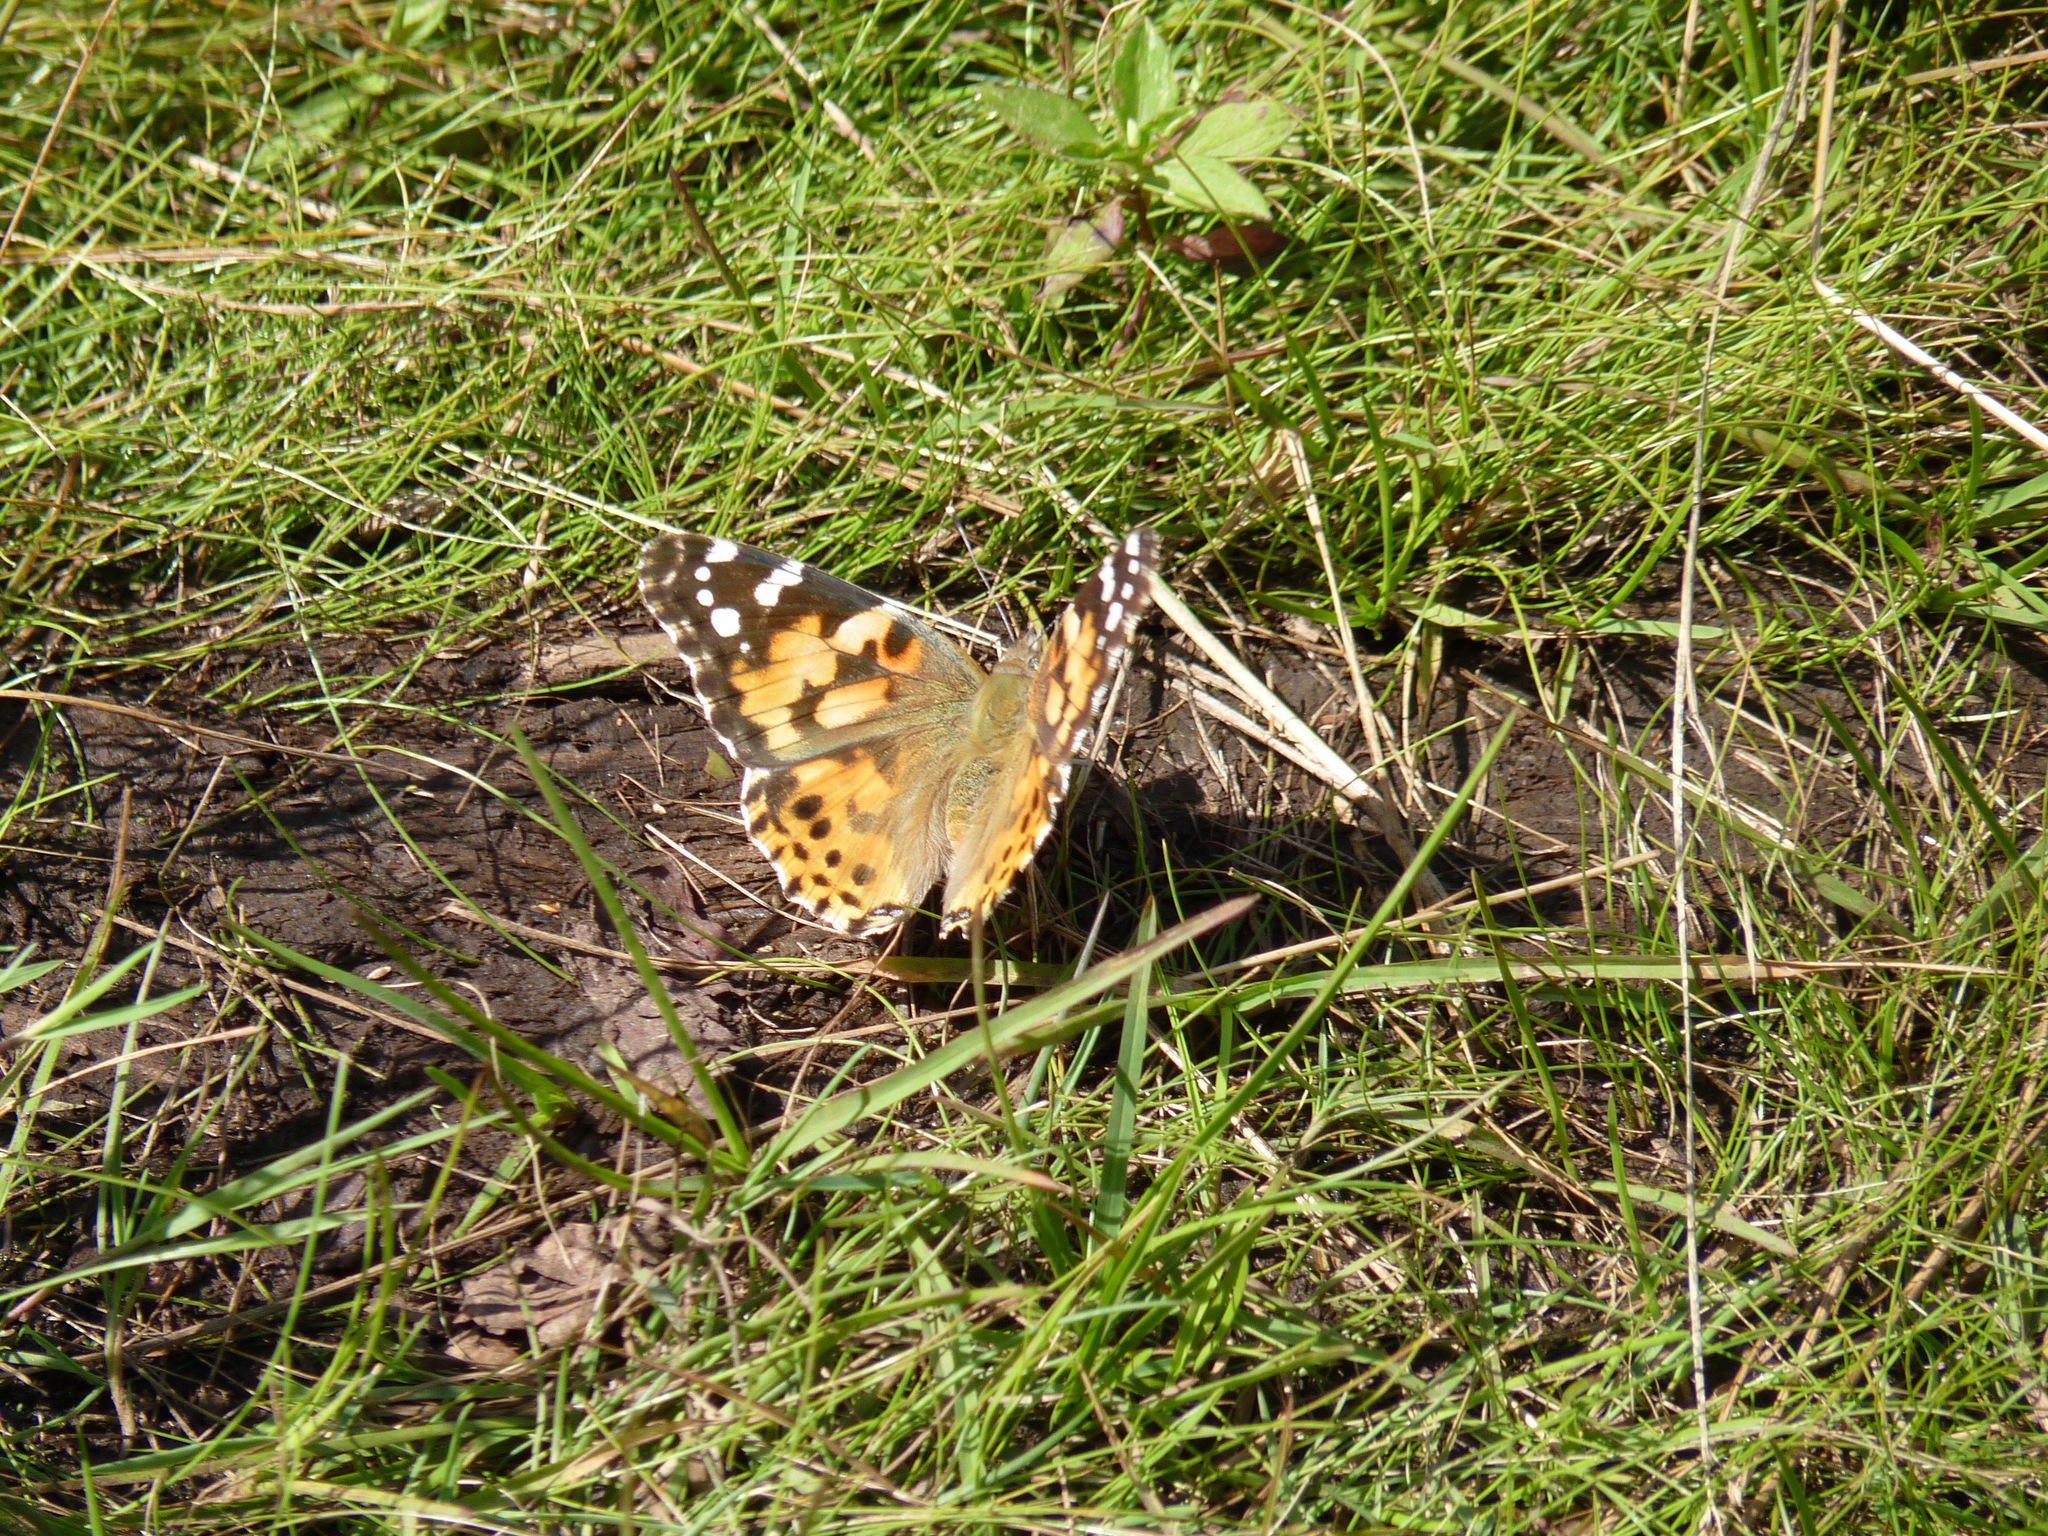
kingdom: Animalia
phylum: Arthropoda
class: Insecta
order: Lepidoptera
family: Nymphalidae
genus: Vanessa
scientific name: Vanessa cardui
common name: Painted lady
